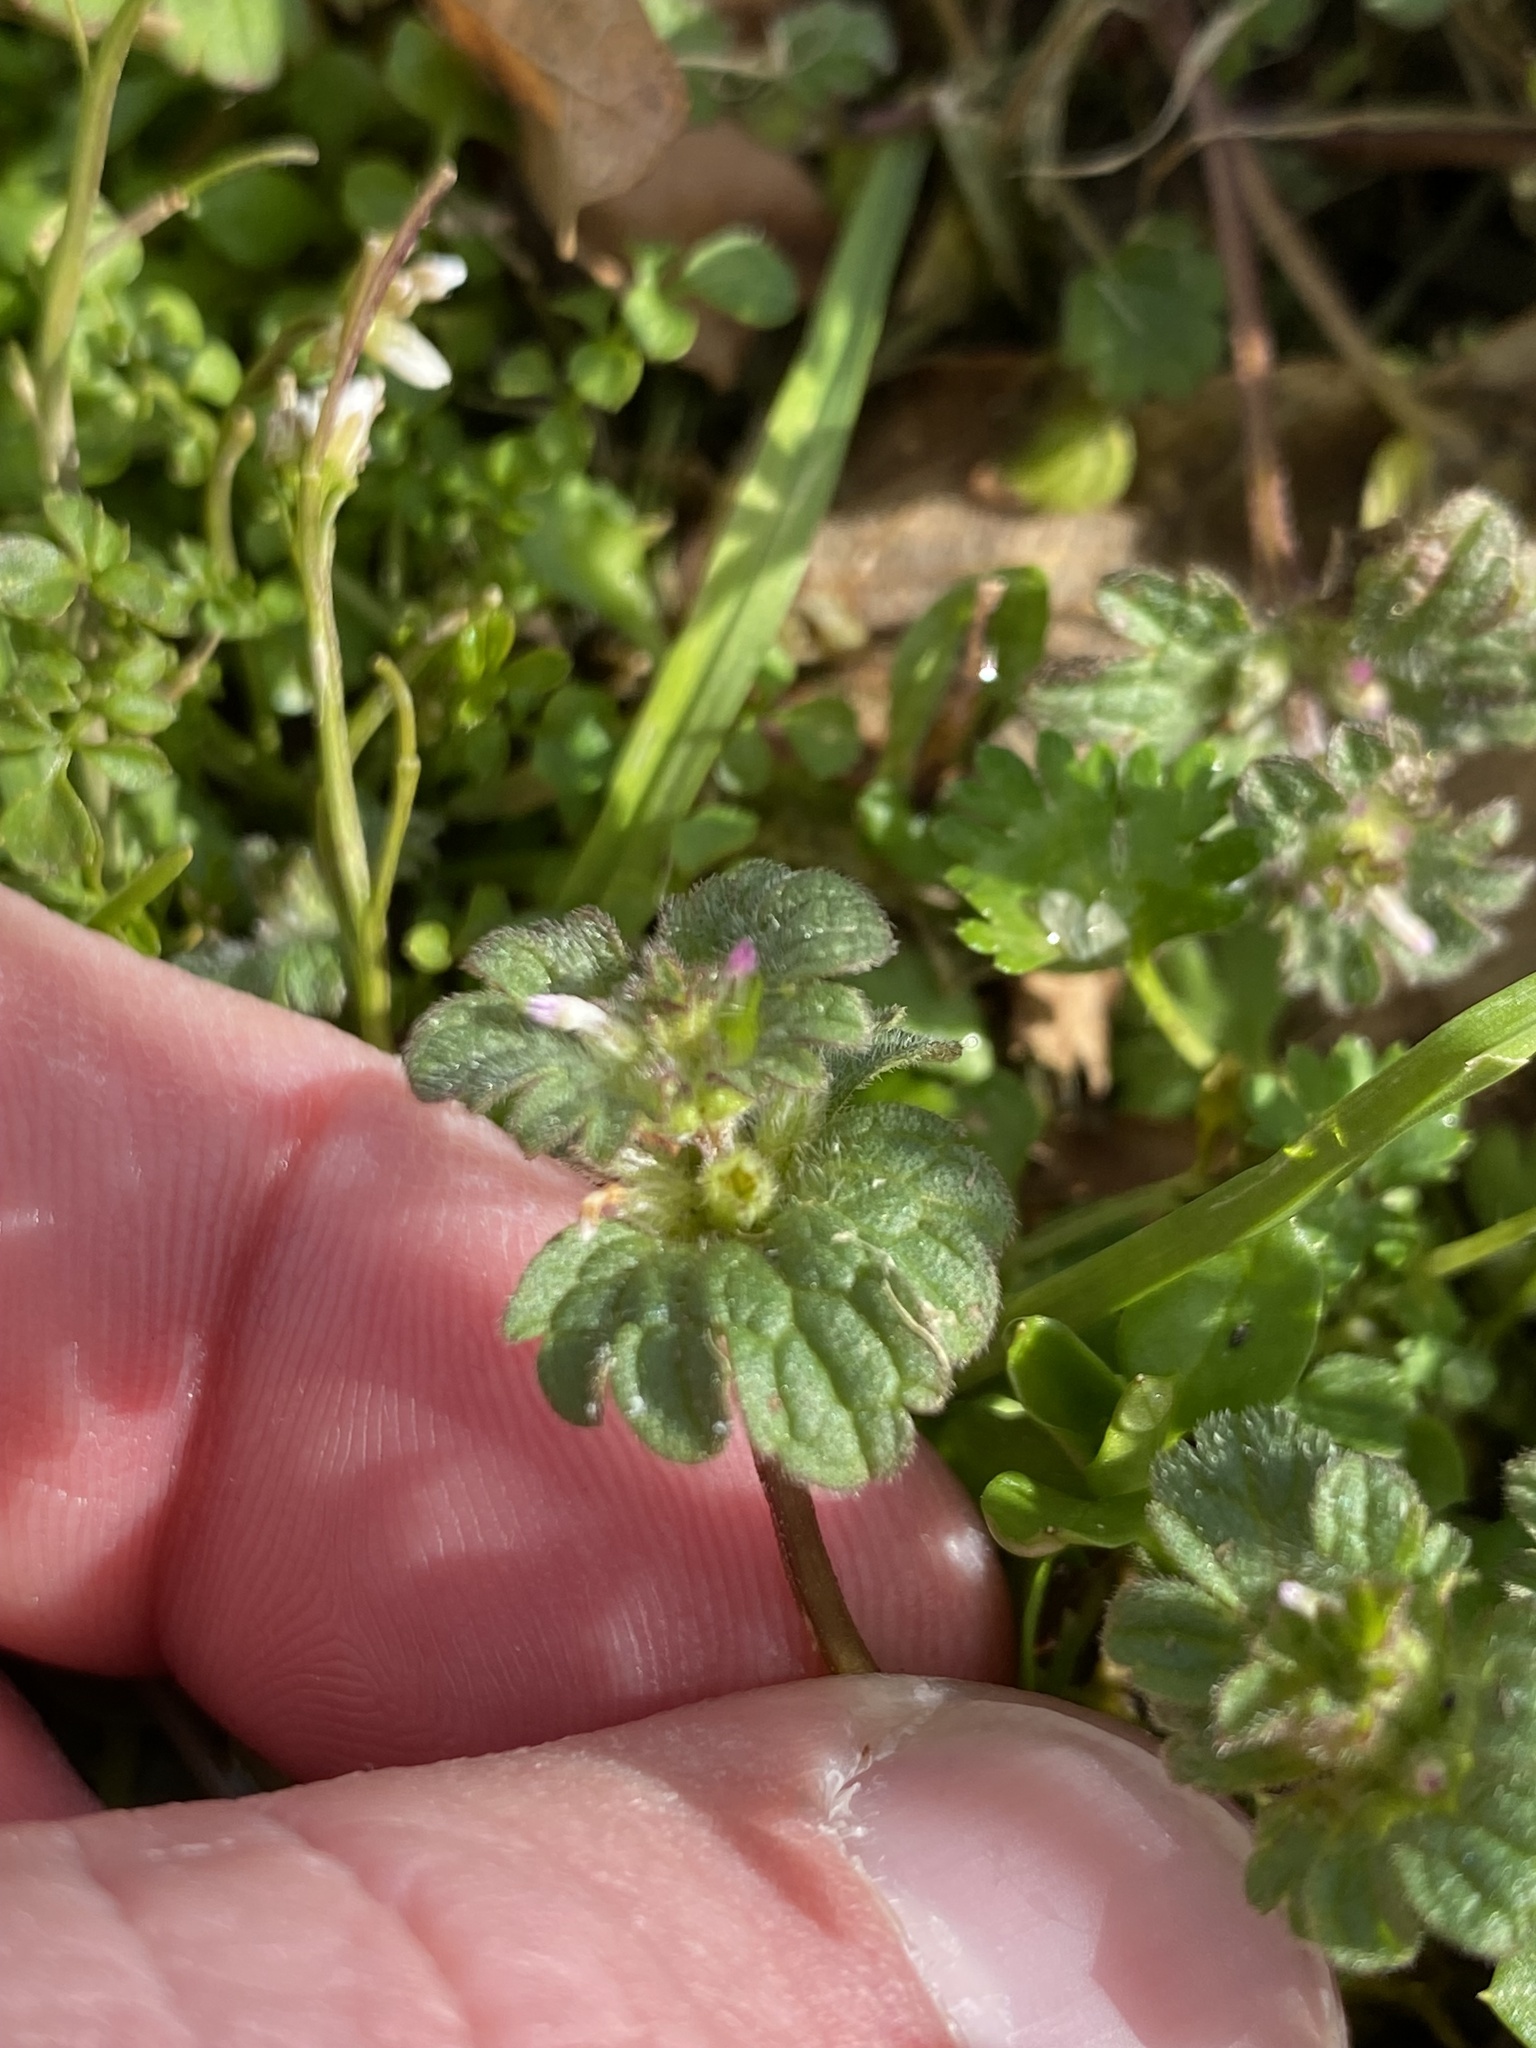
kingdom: Plantae
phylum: Tracheophyta
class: Magnoliopsida
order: Lamiales
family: Lamiaceae
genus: Lamium
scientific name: Lamium amplexicaule
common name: Henbit dead-nettle
